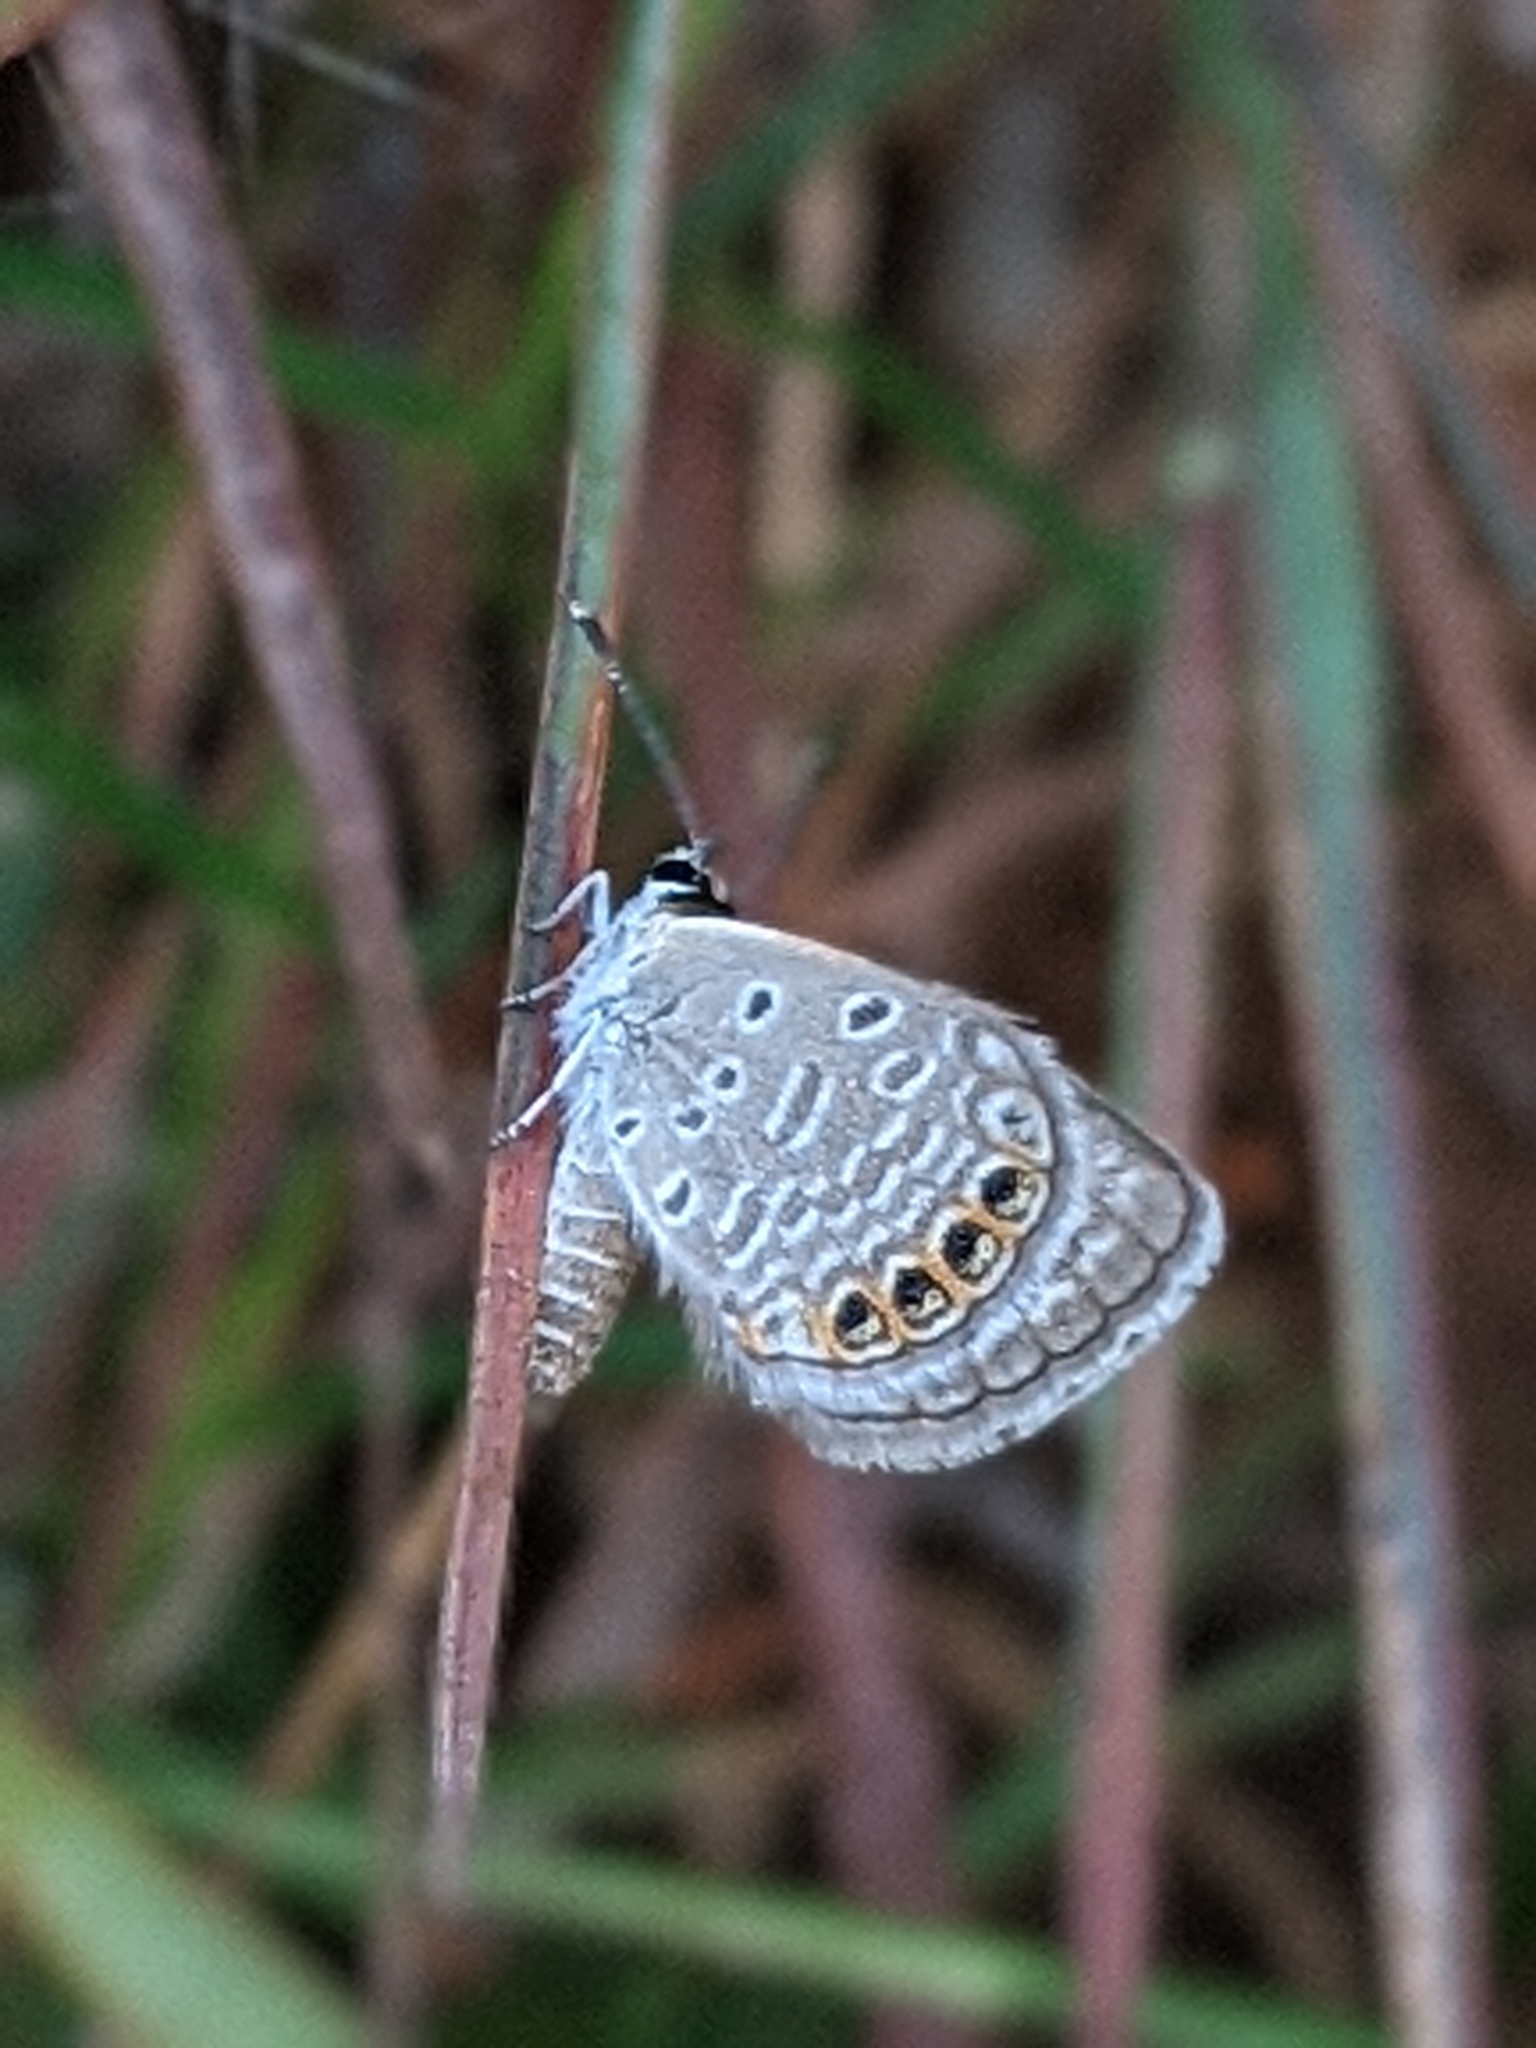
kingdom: Animalia
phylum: Arthropoda
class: Insecta
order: Lepidoptera
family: Lycaenidae
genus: Freyeria
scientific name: Freyeria putli
